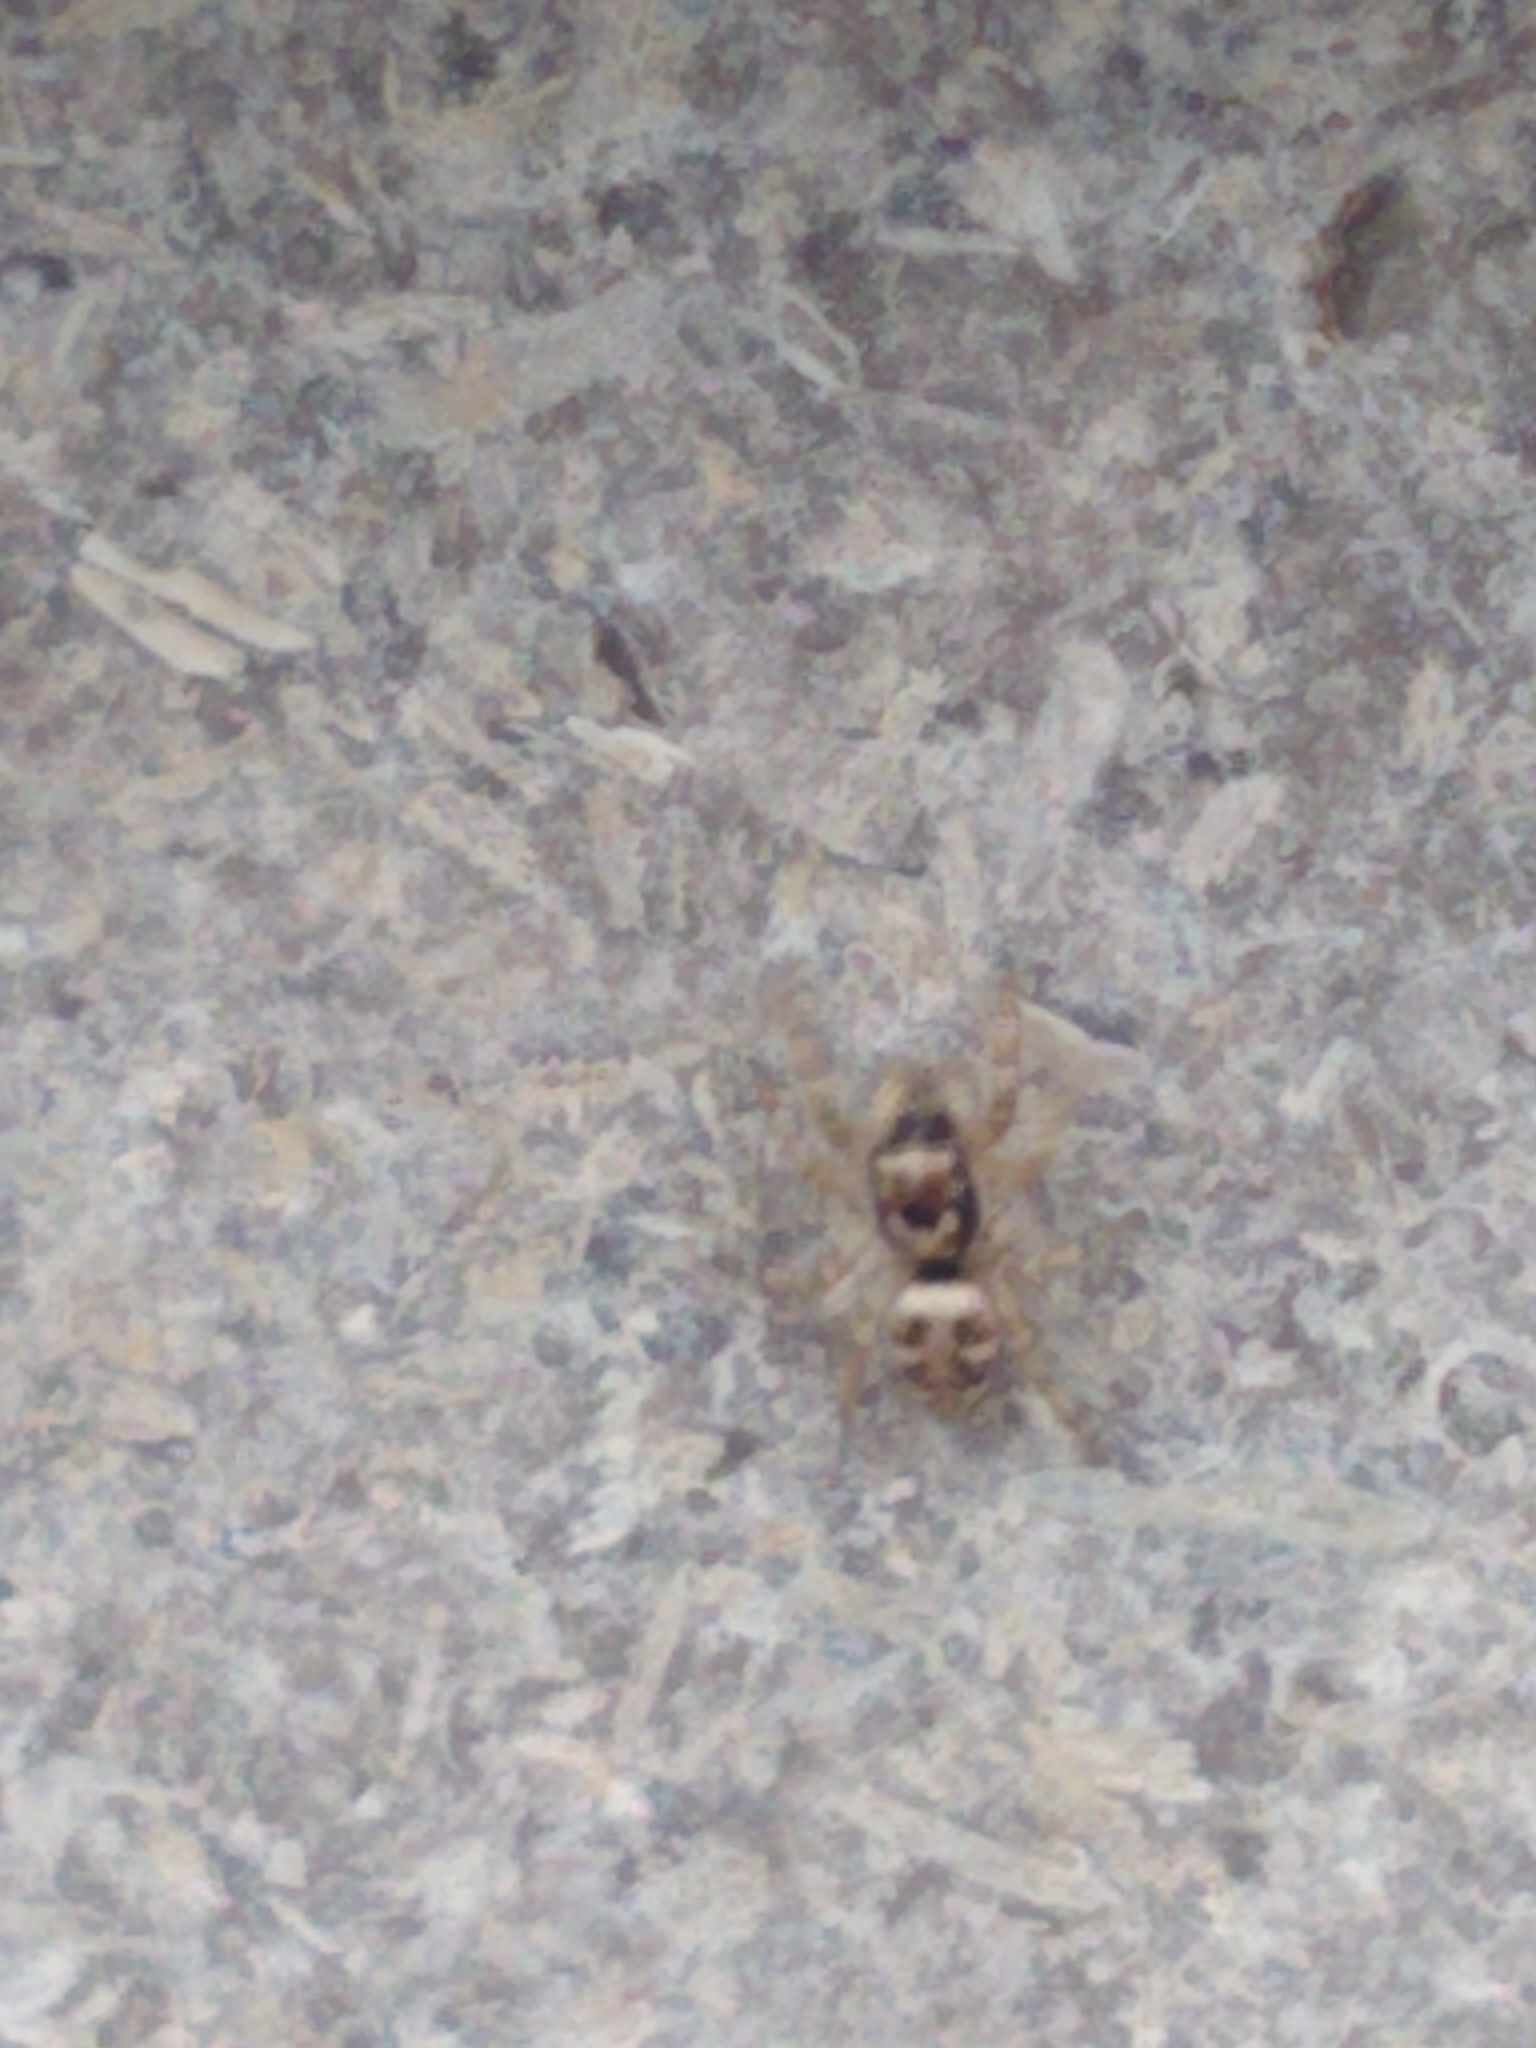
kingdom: Animalia
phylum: Arthropoda
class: Arachnida
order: Araneae
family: Salticidae
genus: Salticus
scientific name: Salticus scenicus
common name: Zebra jumper
